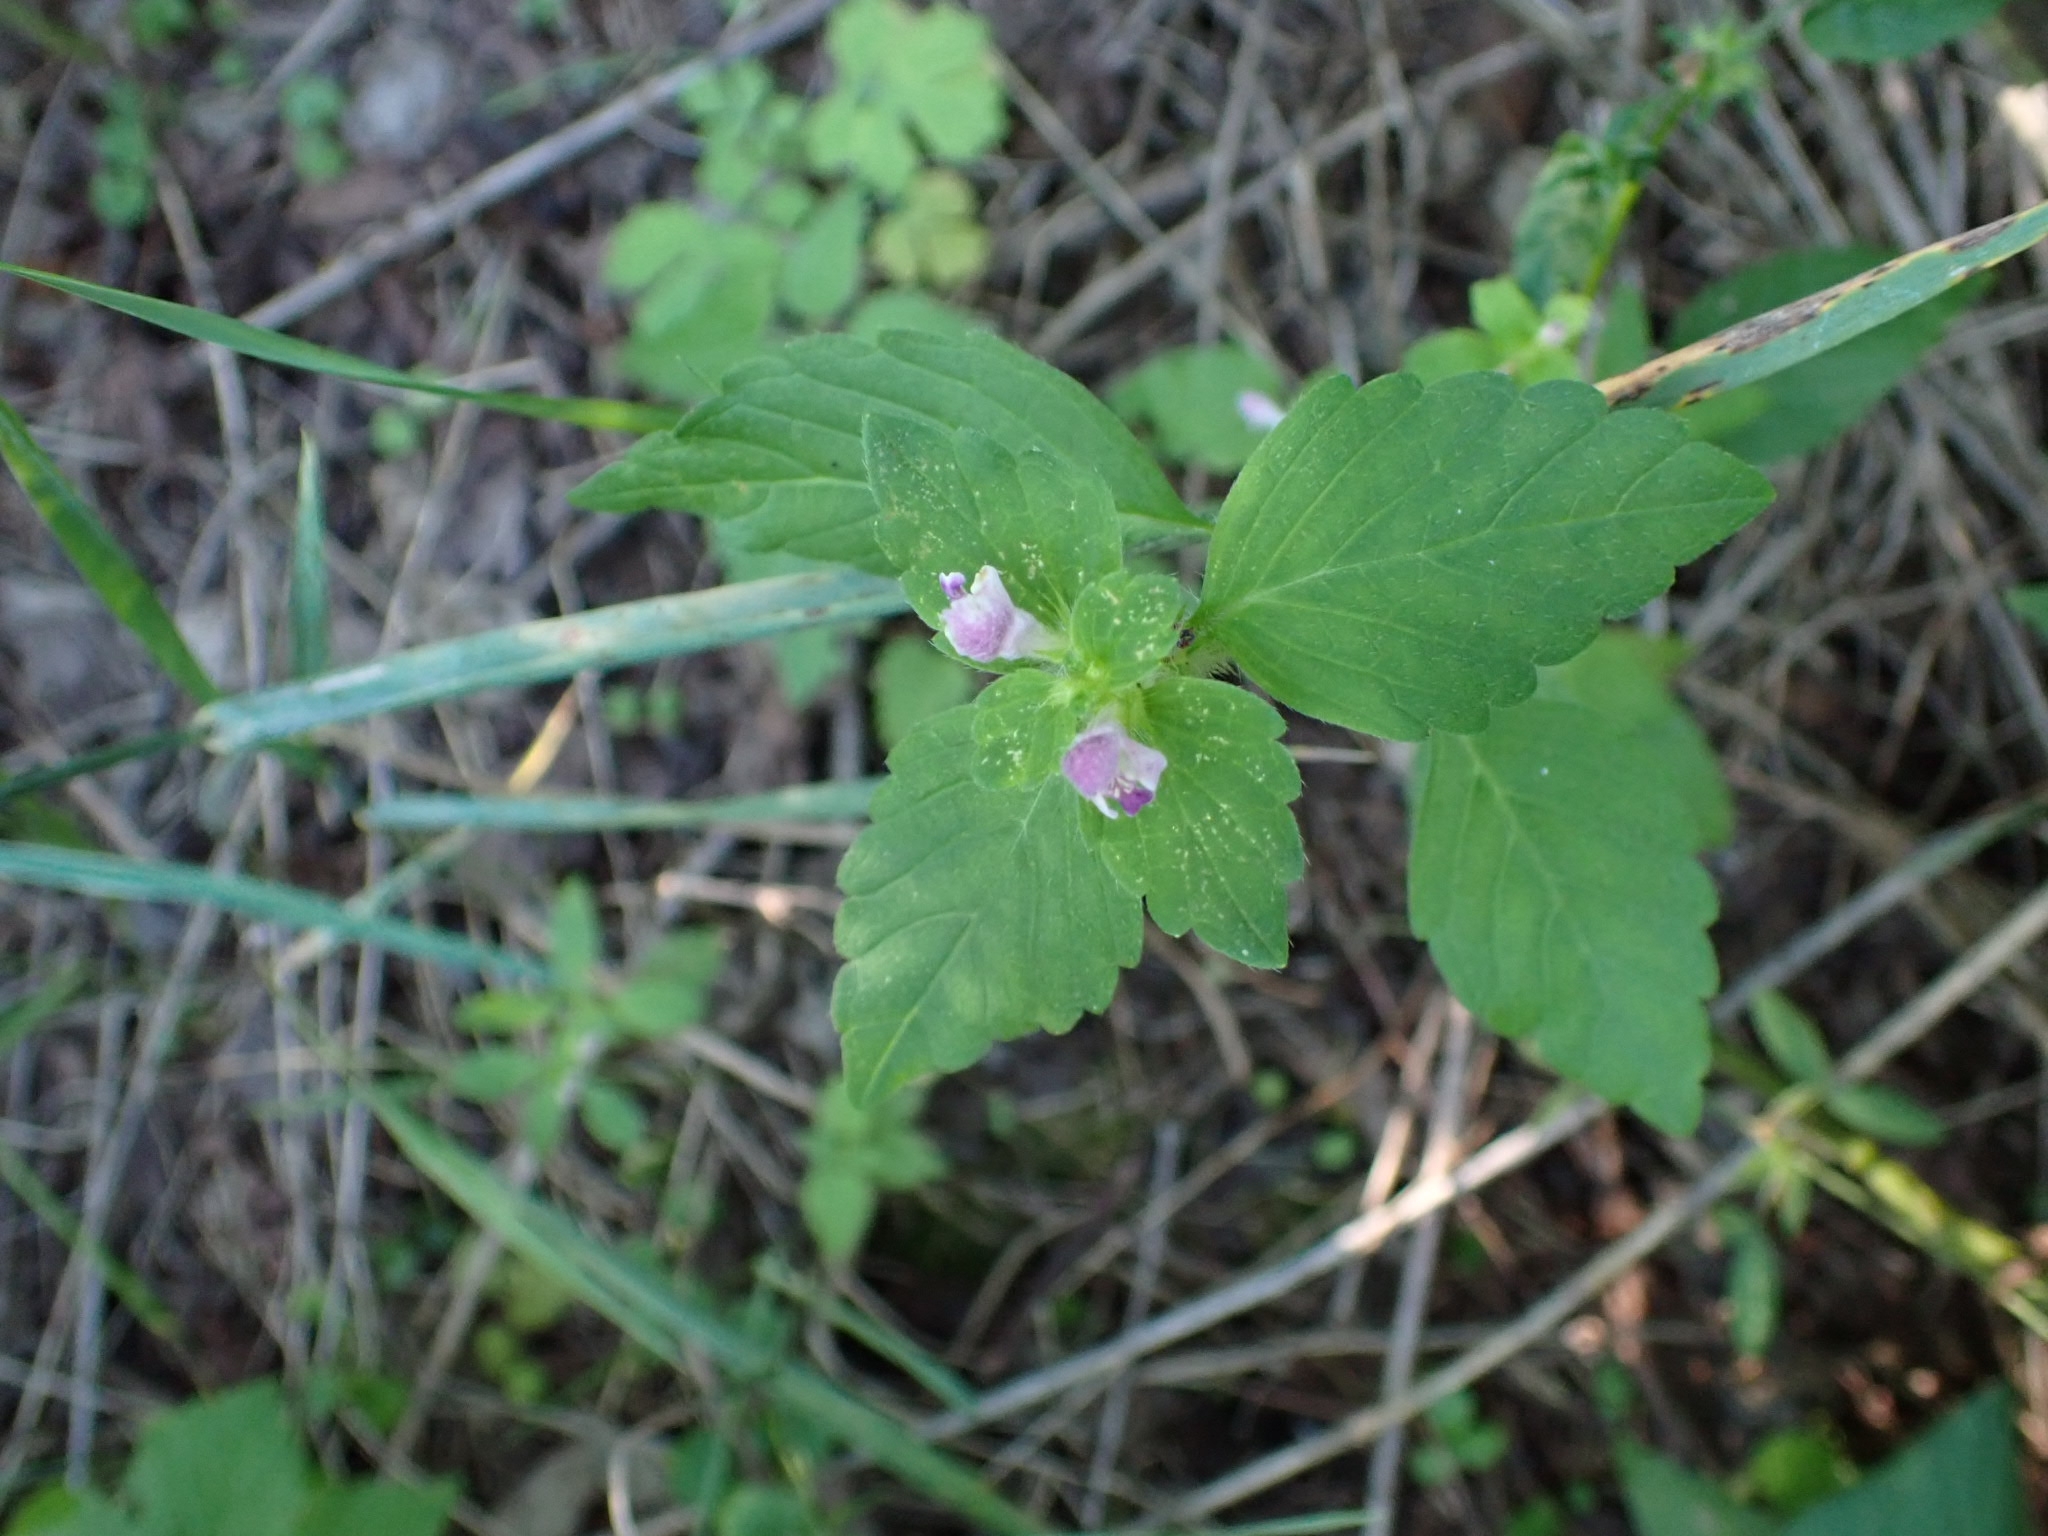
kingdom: Plantae
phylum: Tracheophyta
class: Magnoliopsida
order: Lamiales
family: Lamiaceae
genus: Galeopsis
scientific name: Galeopsis bifida
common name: Bifid hemp-nettle
